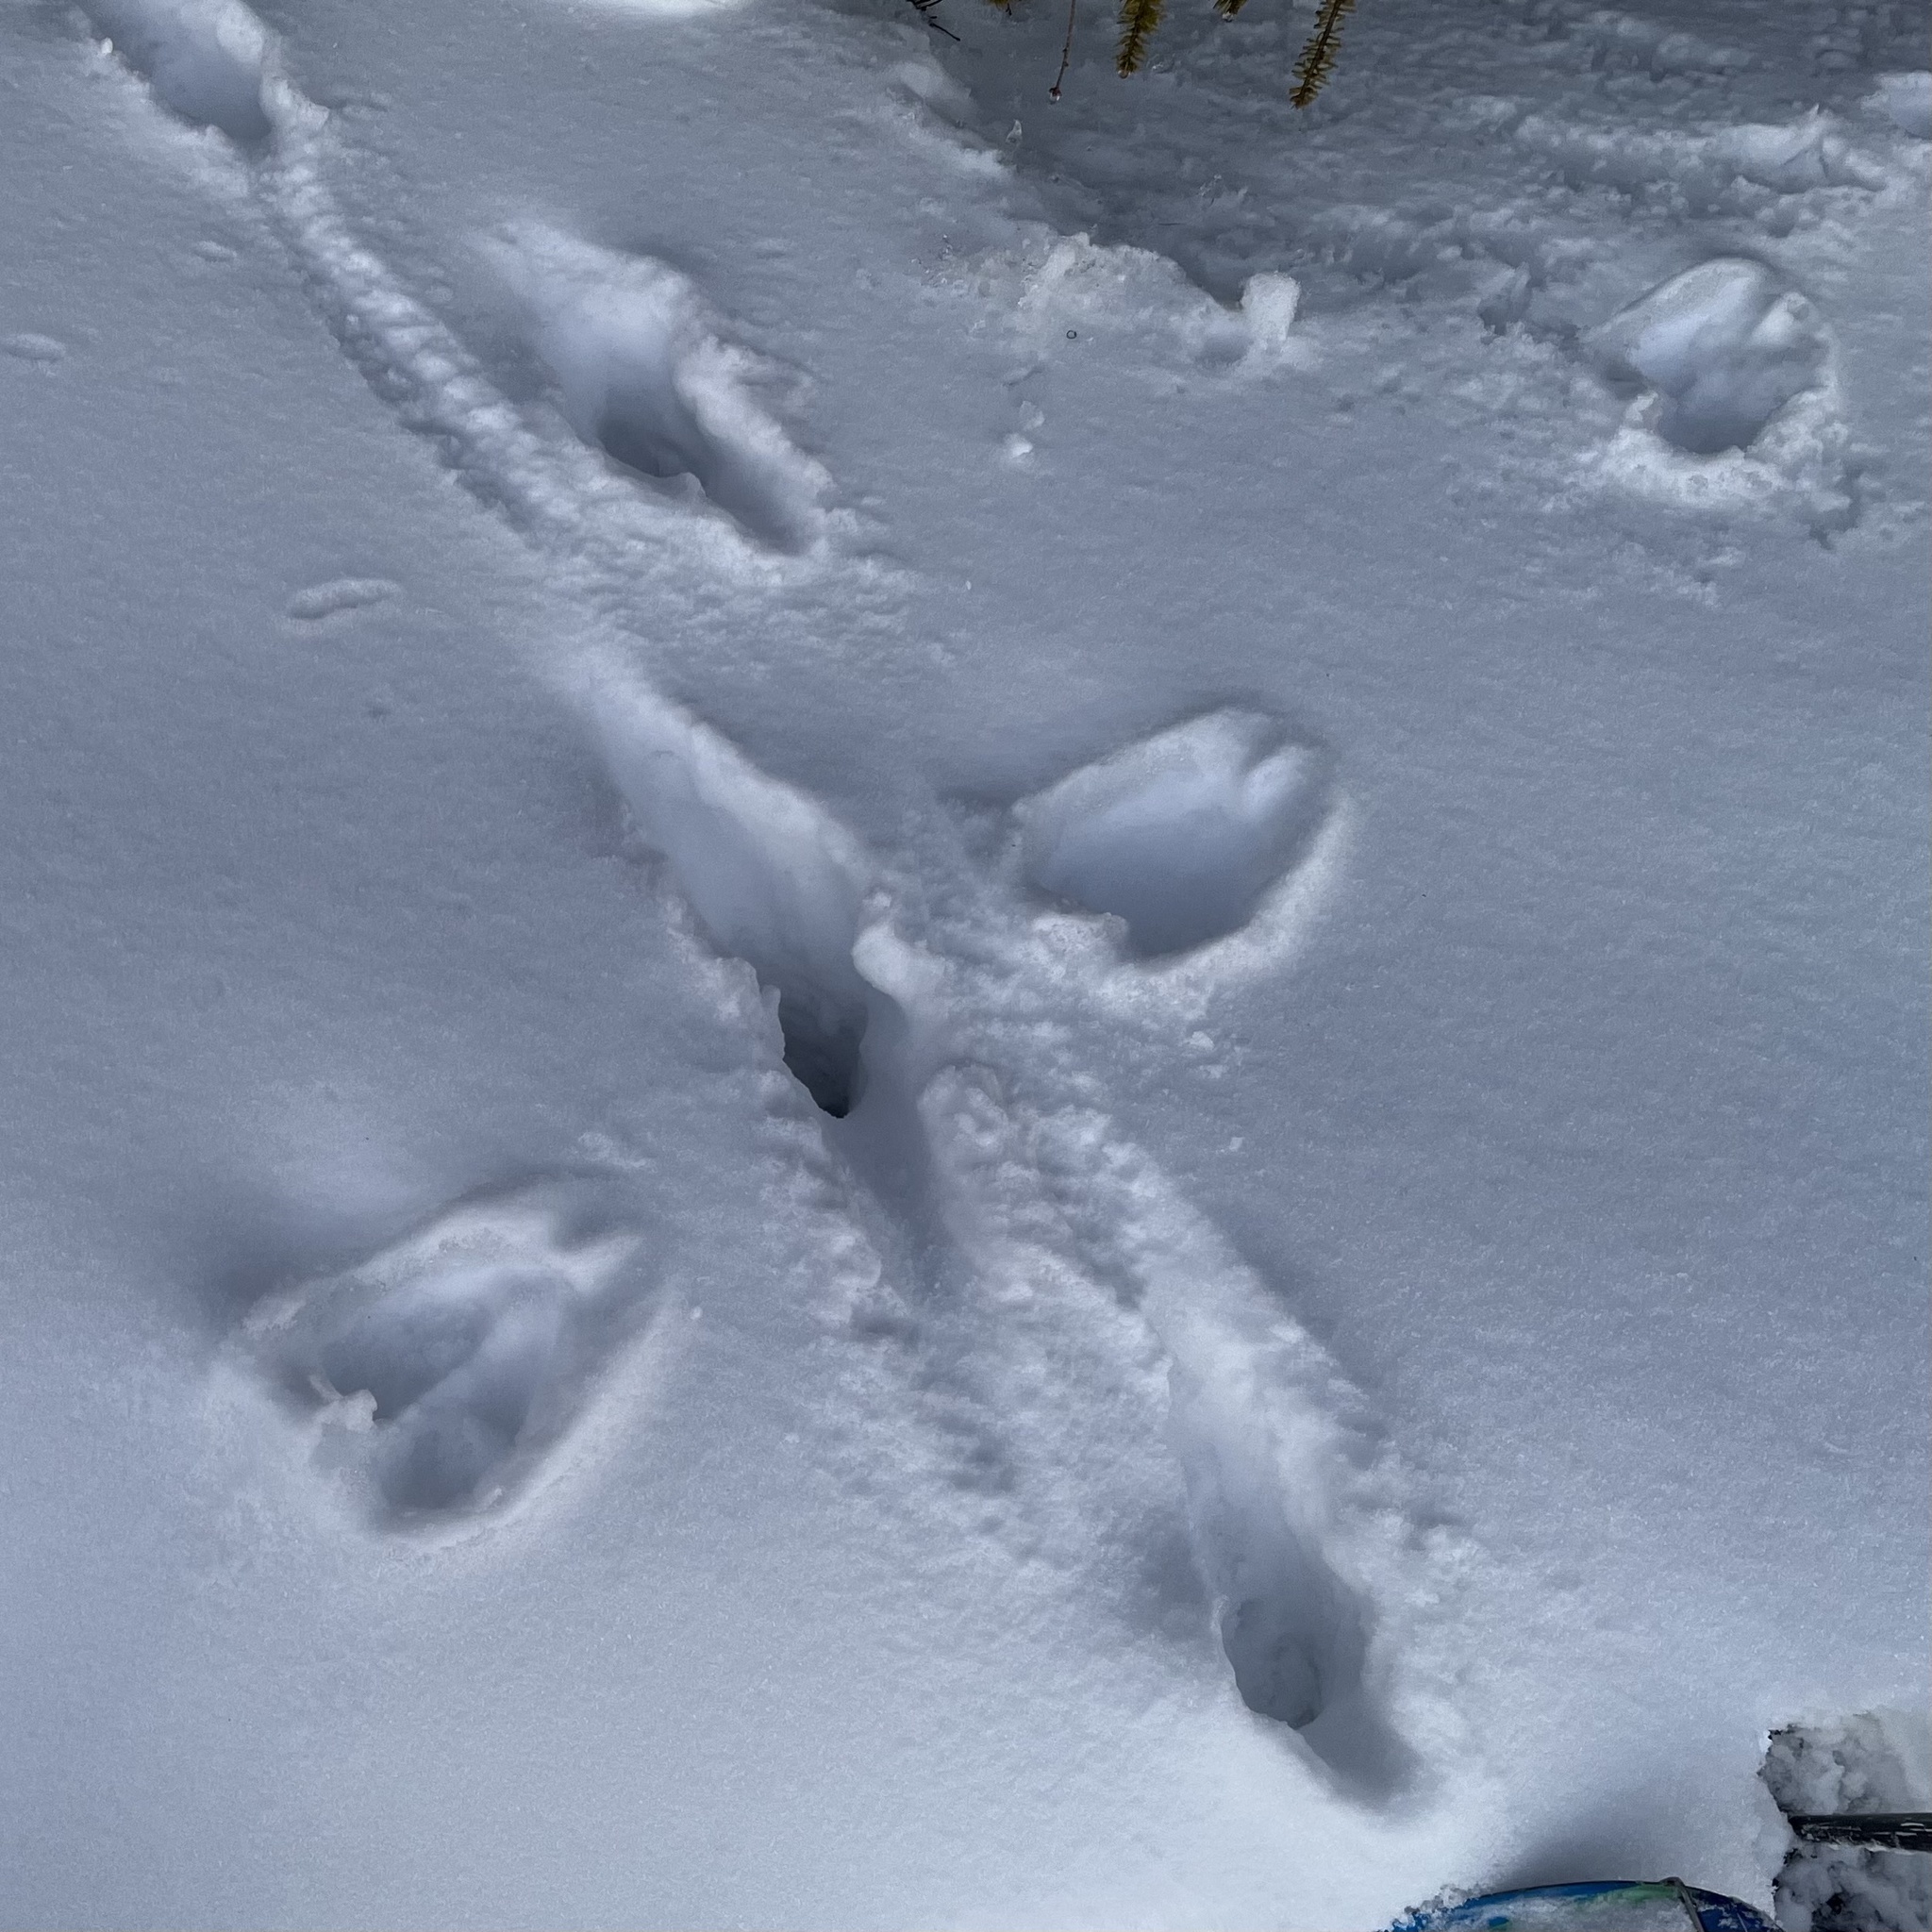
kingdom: Animalia
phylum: Chordata
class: Mammalia
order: Artiodactyla
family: Cervidae
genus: Cervus
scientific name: Cervus elaphus
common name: Red deer
